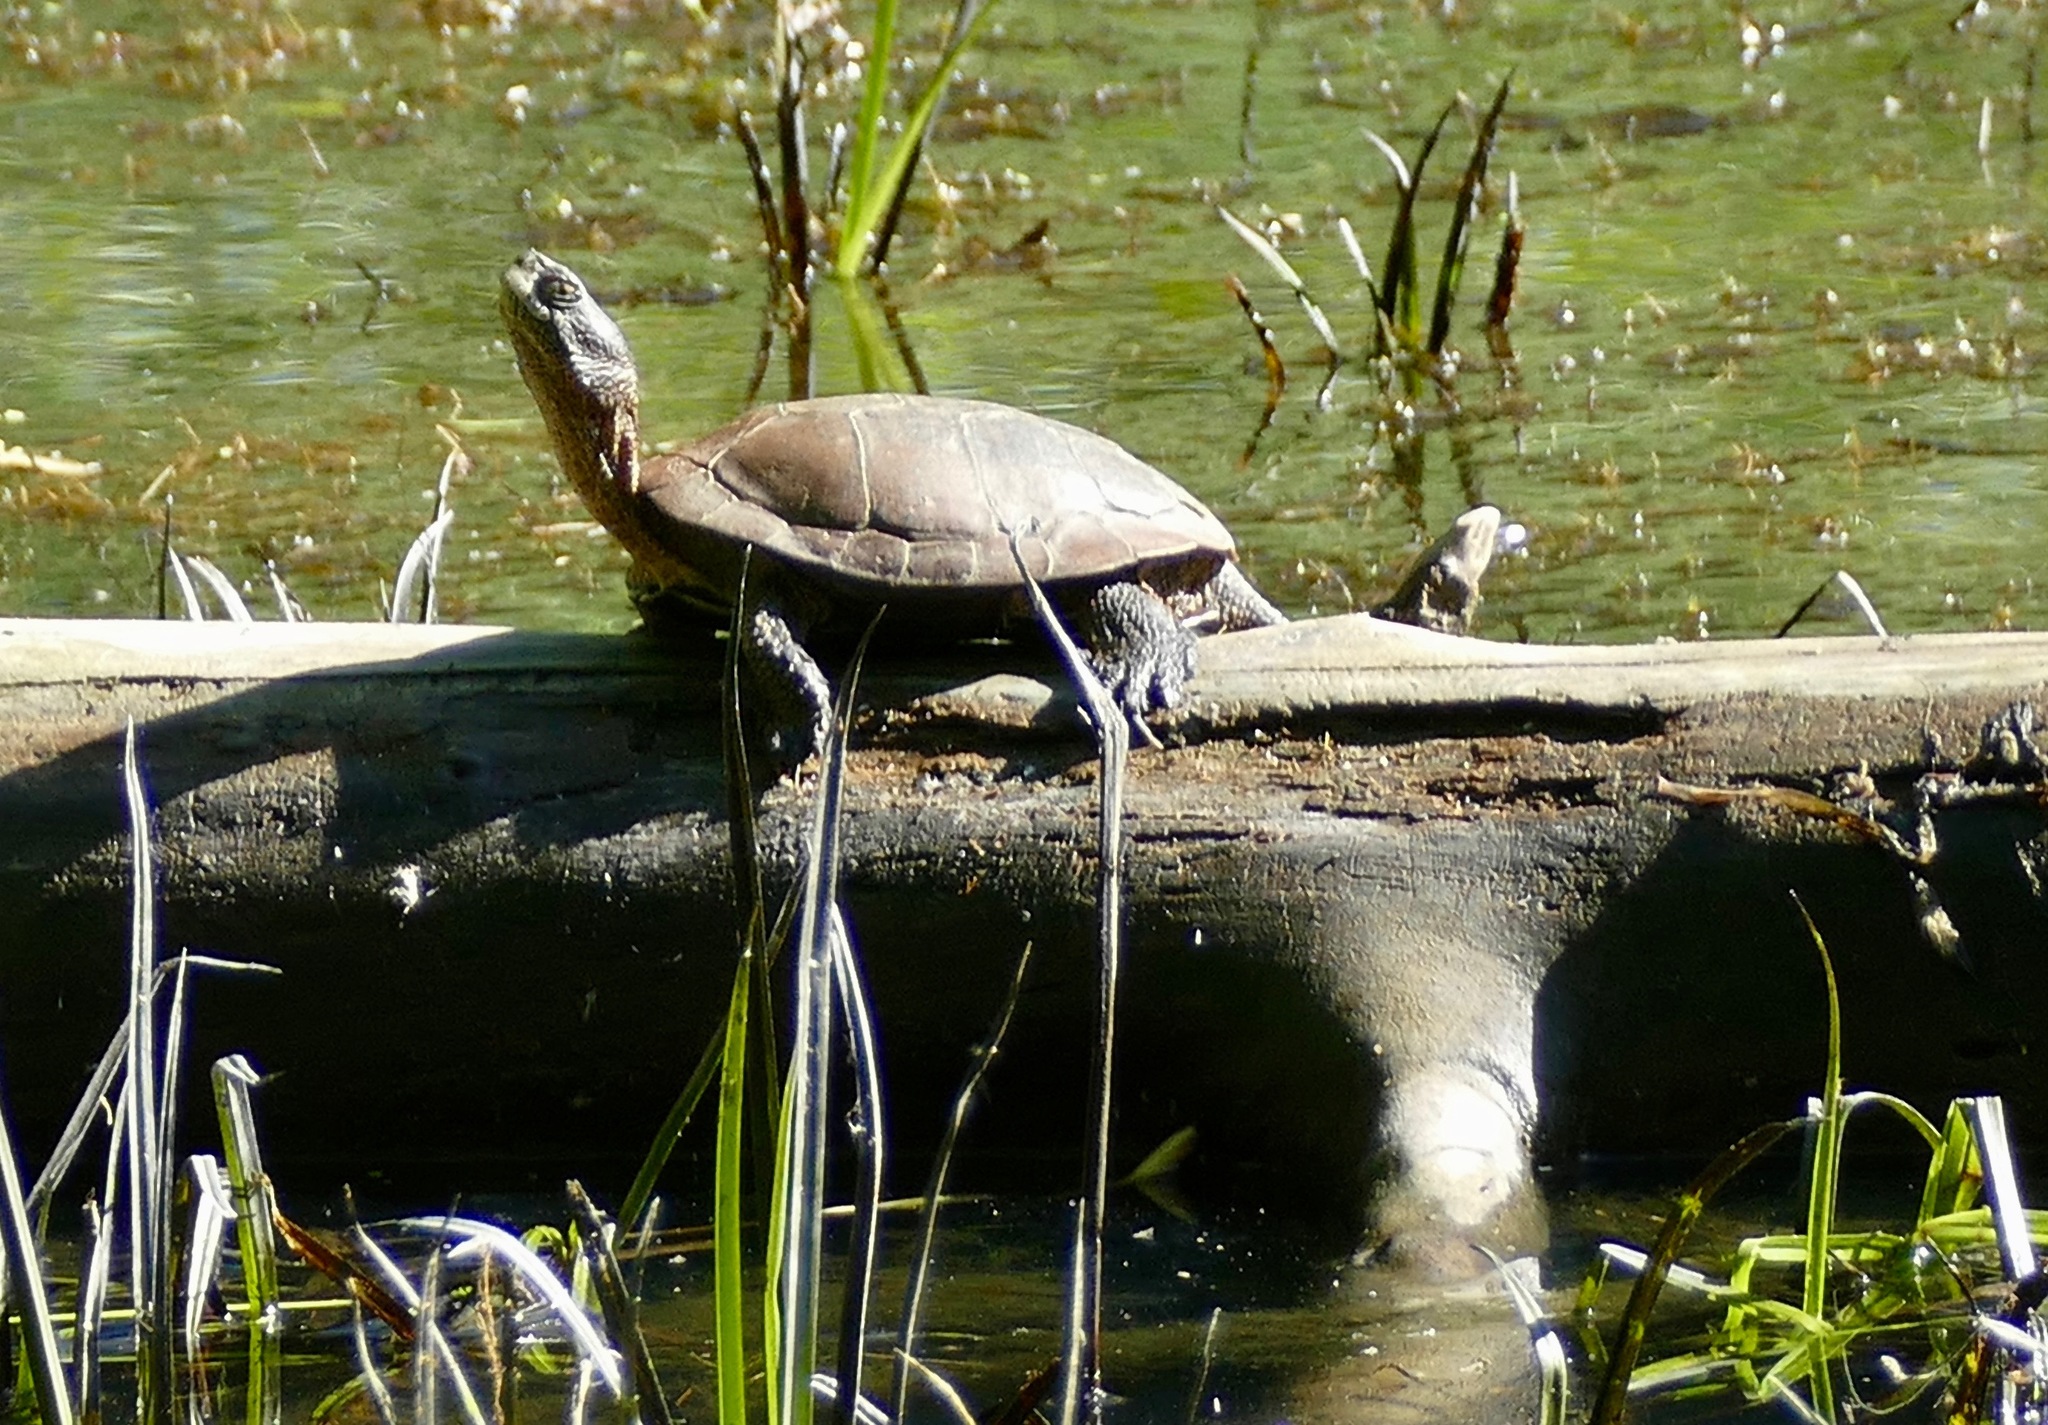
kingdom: Animalia
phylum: Chordata
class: Testudines
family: Emydidae
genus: Actinemys
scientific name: Actinemys marmorata
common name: Western pond turtle
